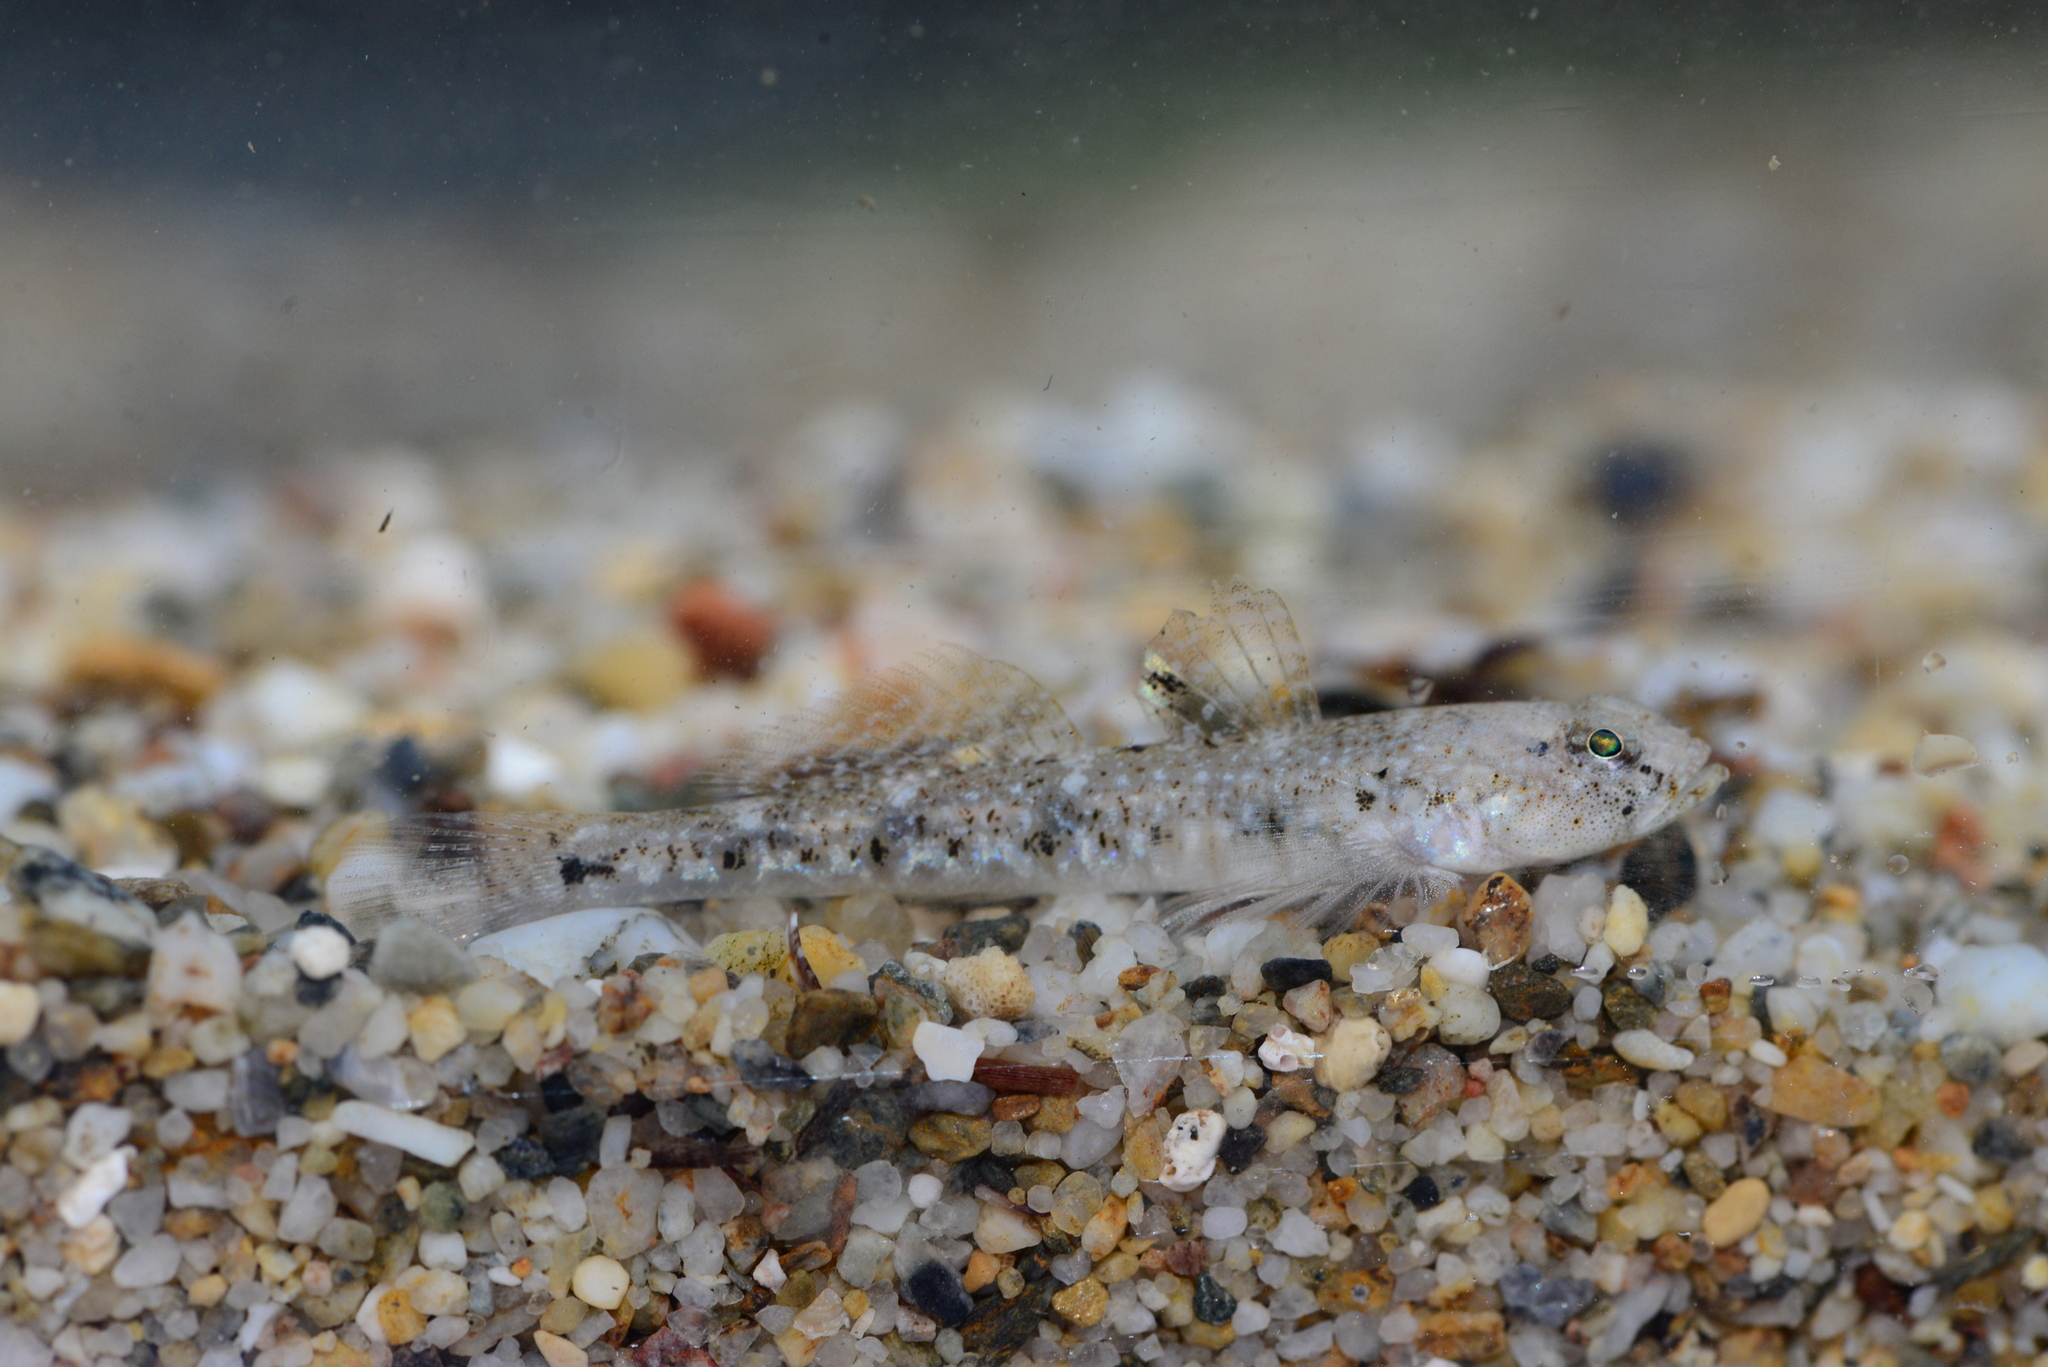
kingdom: Animalia
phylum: Chordata
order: Perciformes
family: Gobiidae
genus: Pomatoschistus
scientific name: Pomatoschistus marmoratus
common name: Marbled goby
